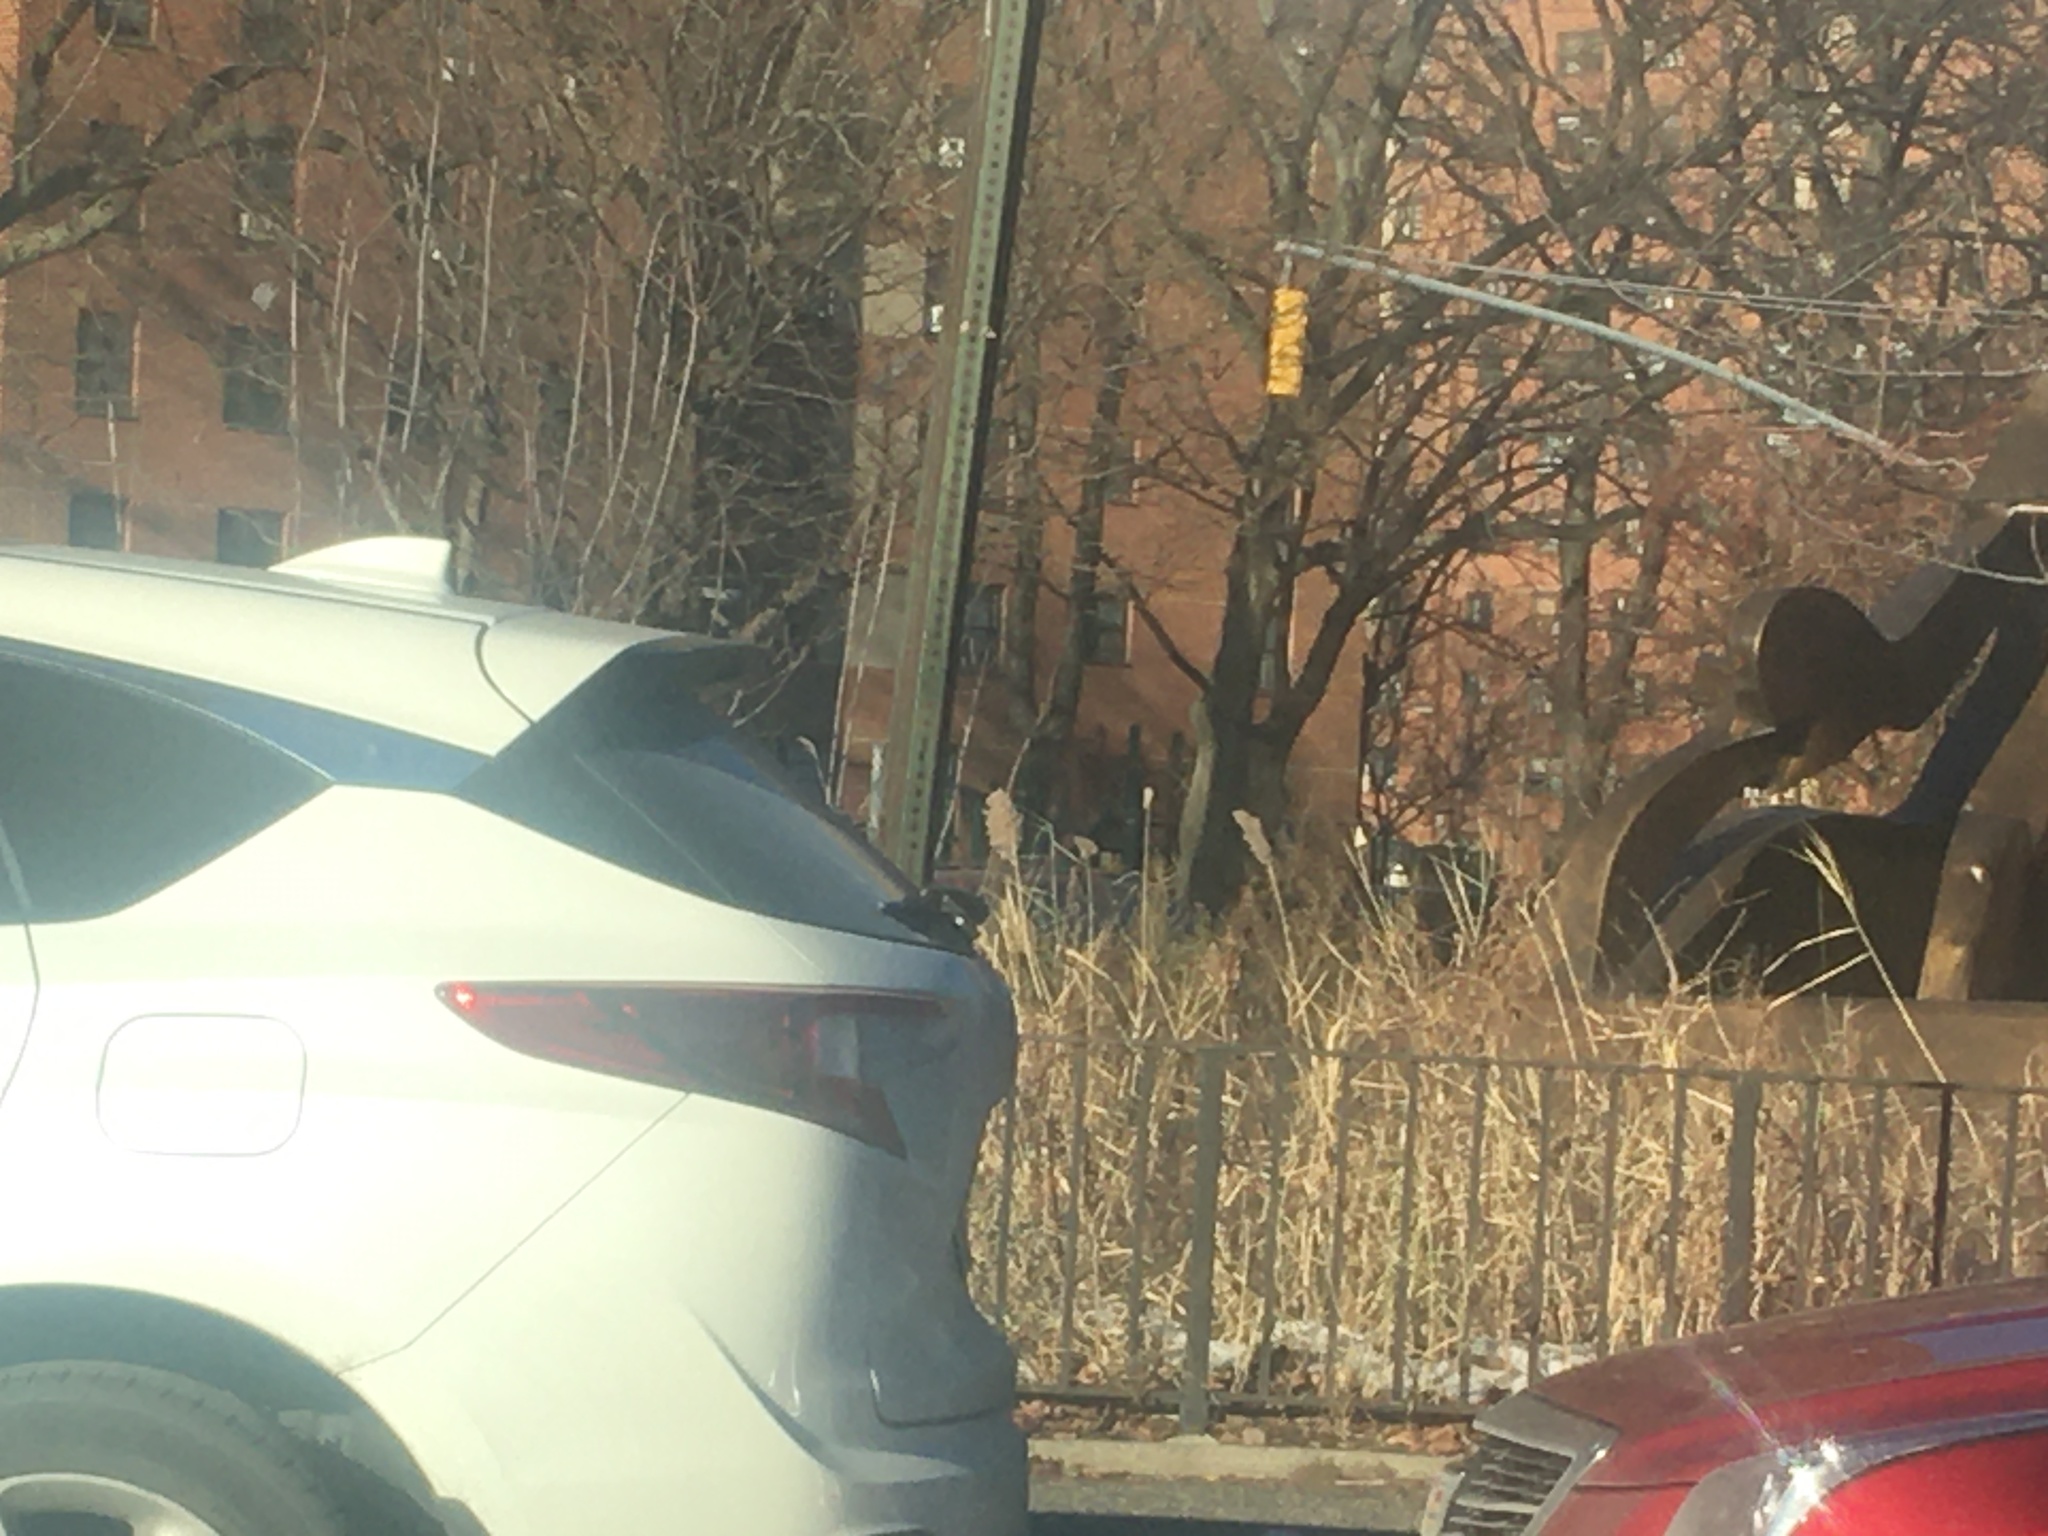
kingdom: Plantae
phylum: Tracheophyta
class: Liliopsida
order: Poales
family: Poaceae
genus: Phragmites
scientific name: Phragmites australis
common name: Common reed
